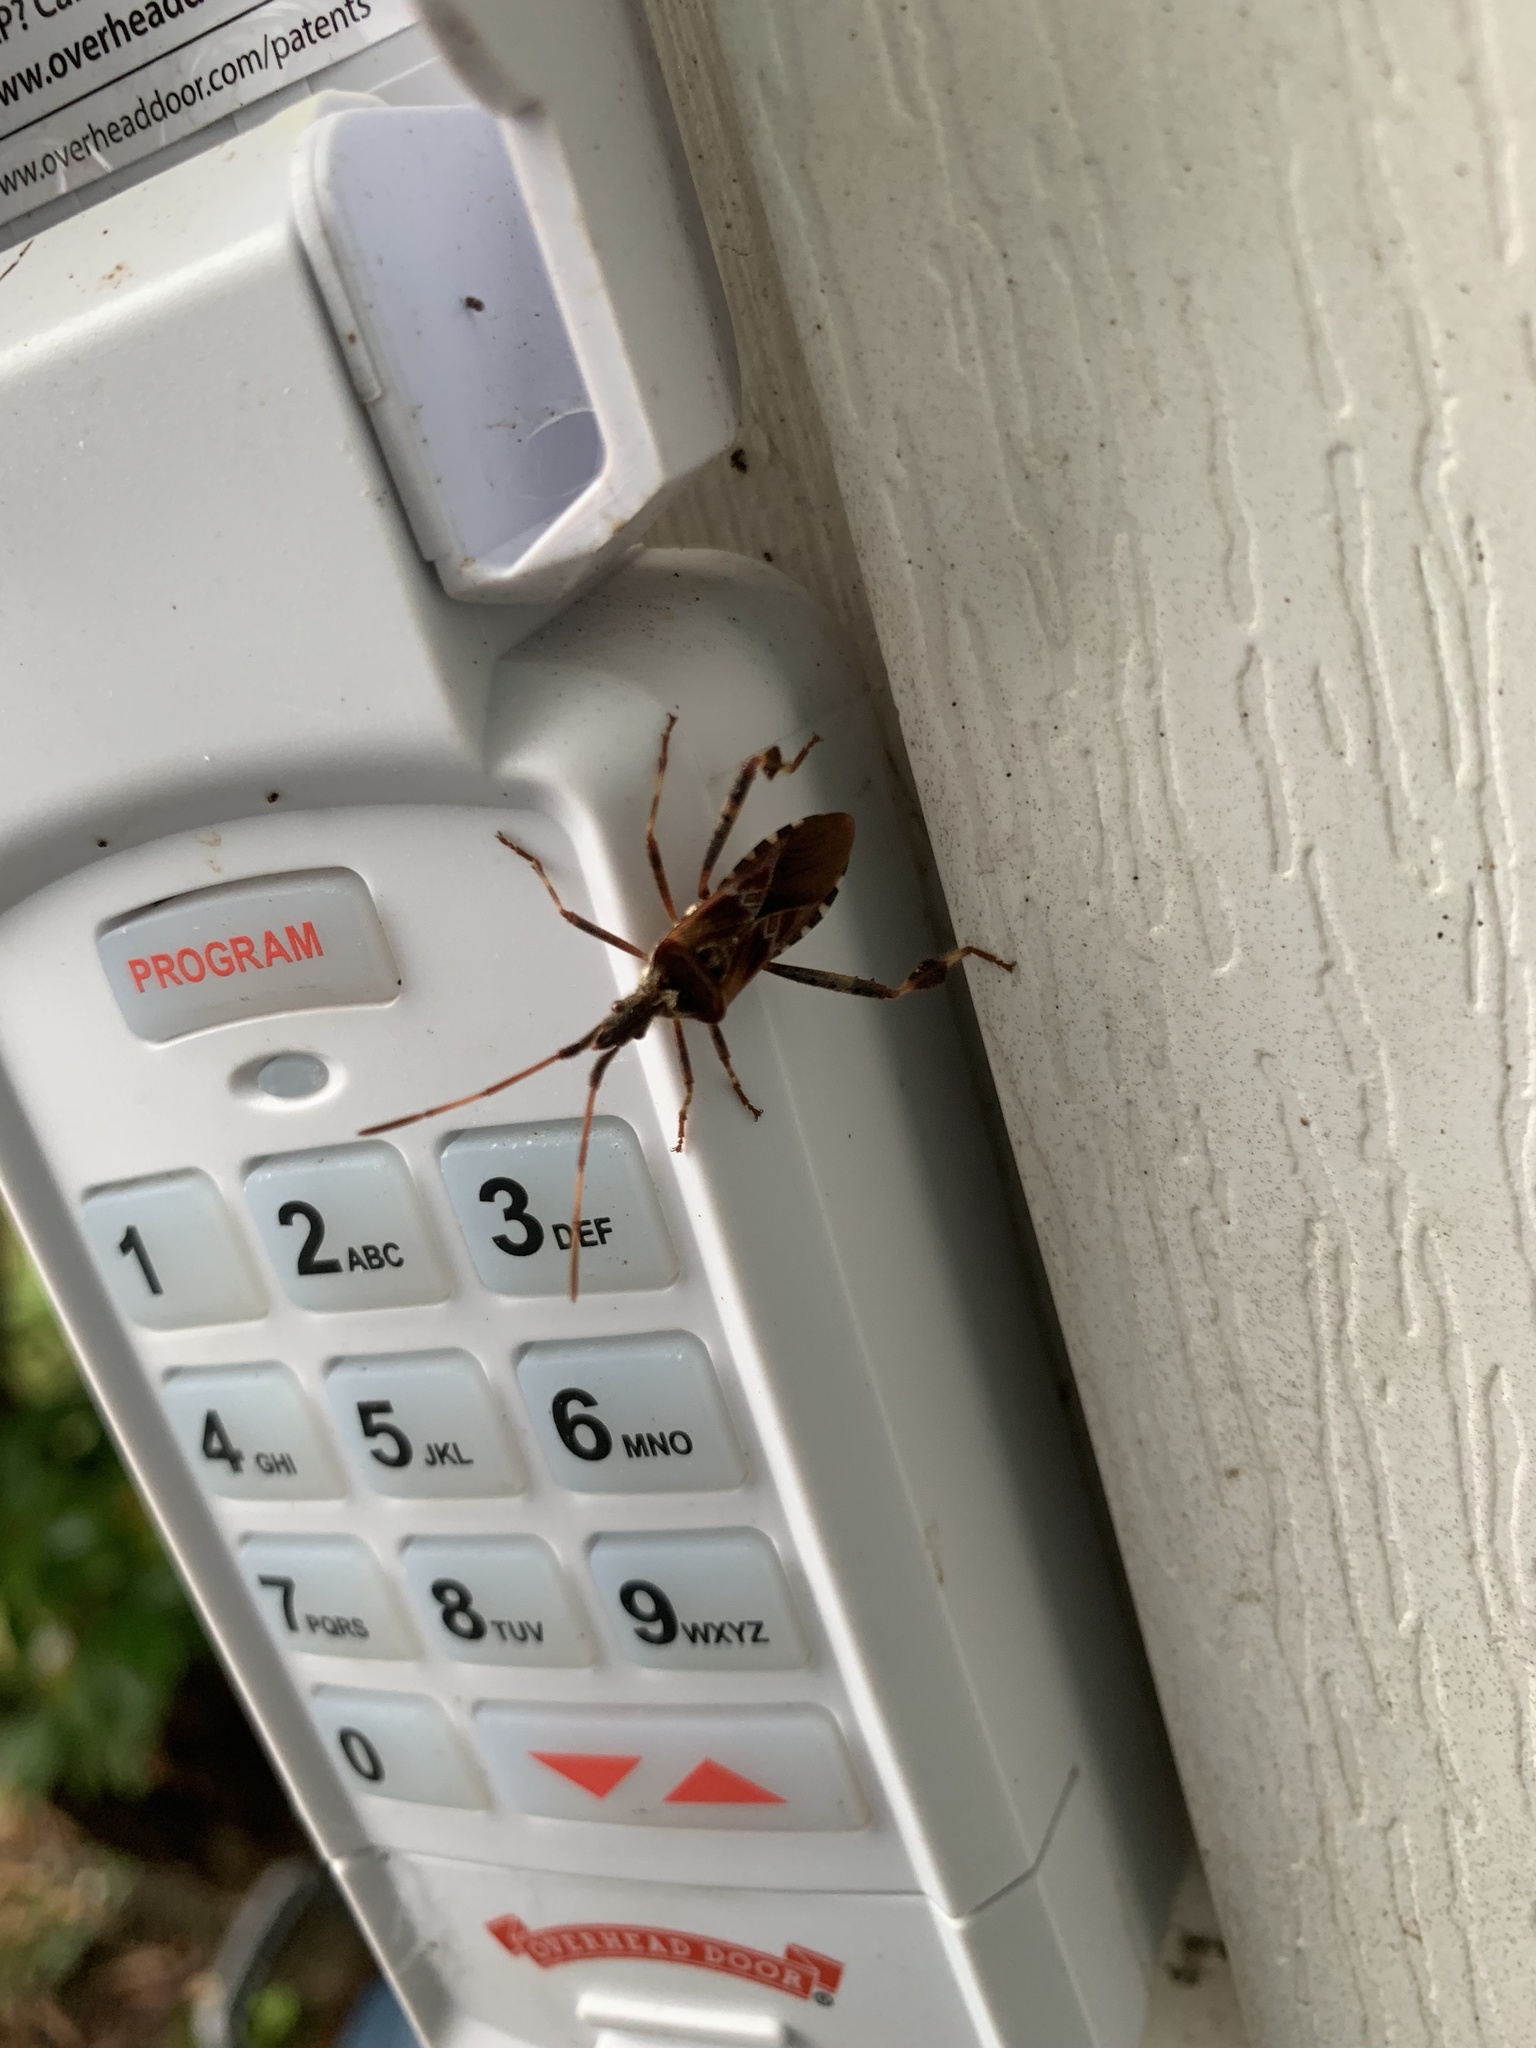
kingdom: Animalia
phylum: Arthropoda
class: Insecta
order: Hemiptera
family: Coreidae
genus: Leptoglossus
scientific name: Leptoglossus occidentalis
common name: Western conifer-seed bug
